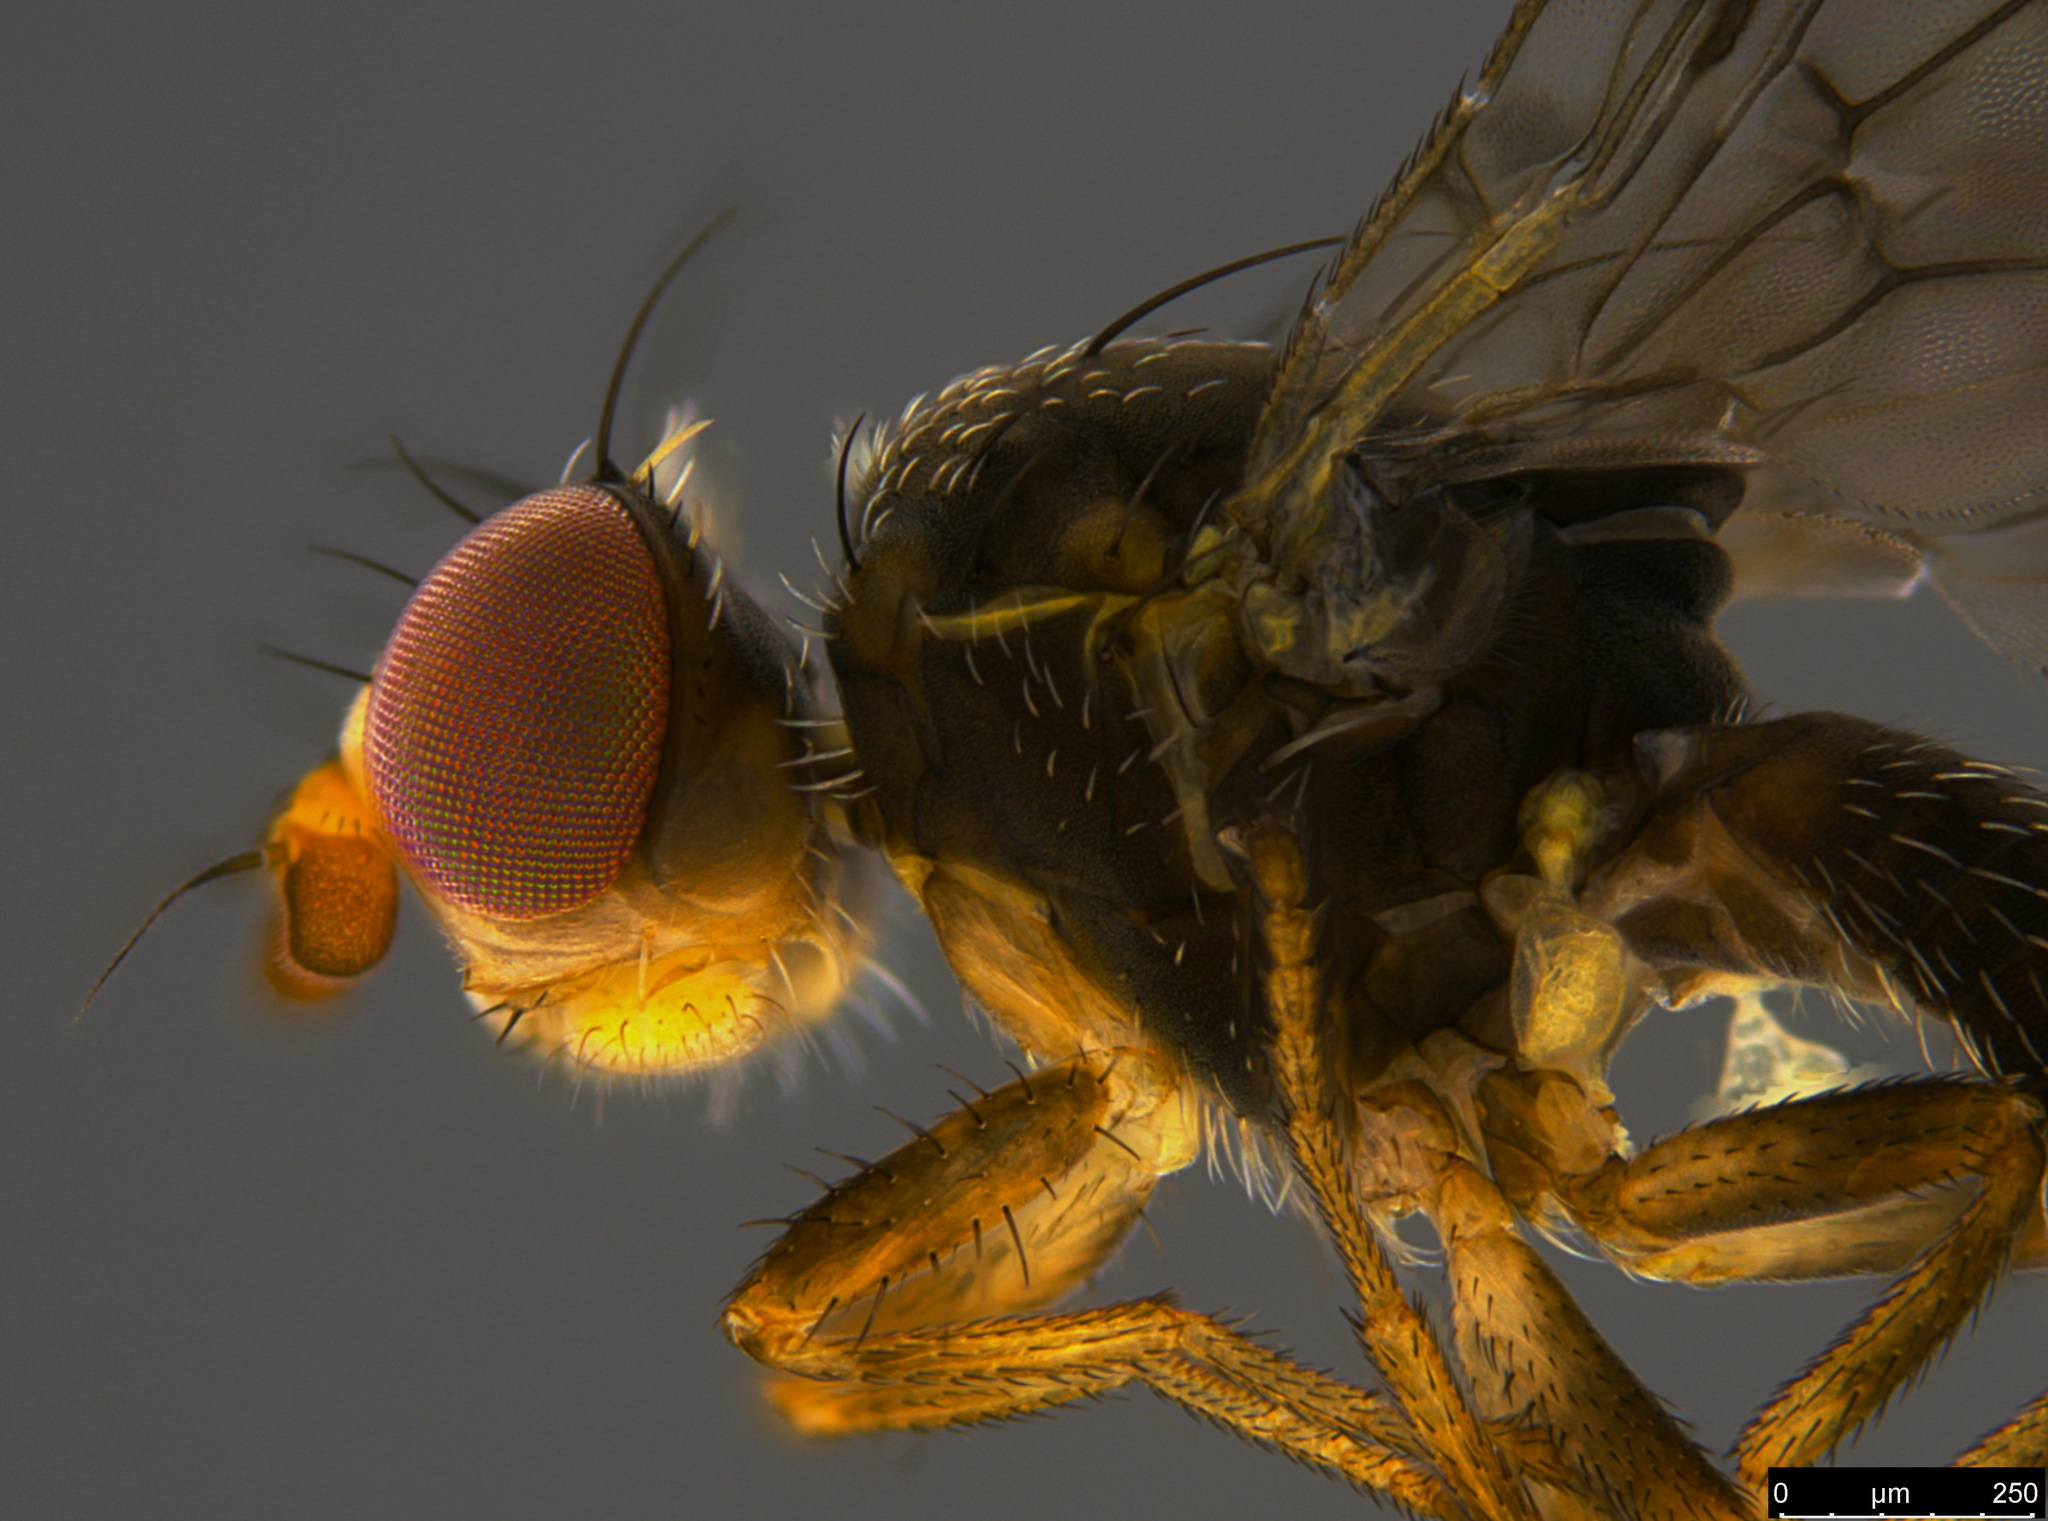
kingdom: Animalia
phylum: Arthropoda
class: Insecta
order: Diptera
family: Tephritidae
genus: Austrotephritis
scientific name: Austrotephritis
